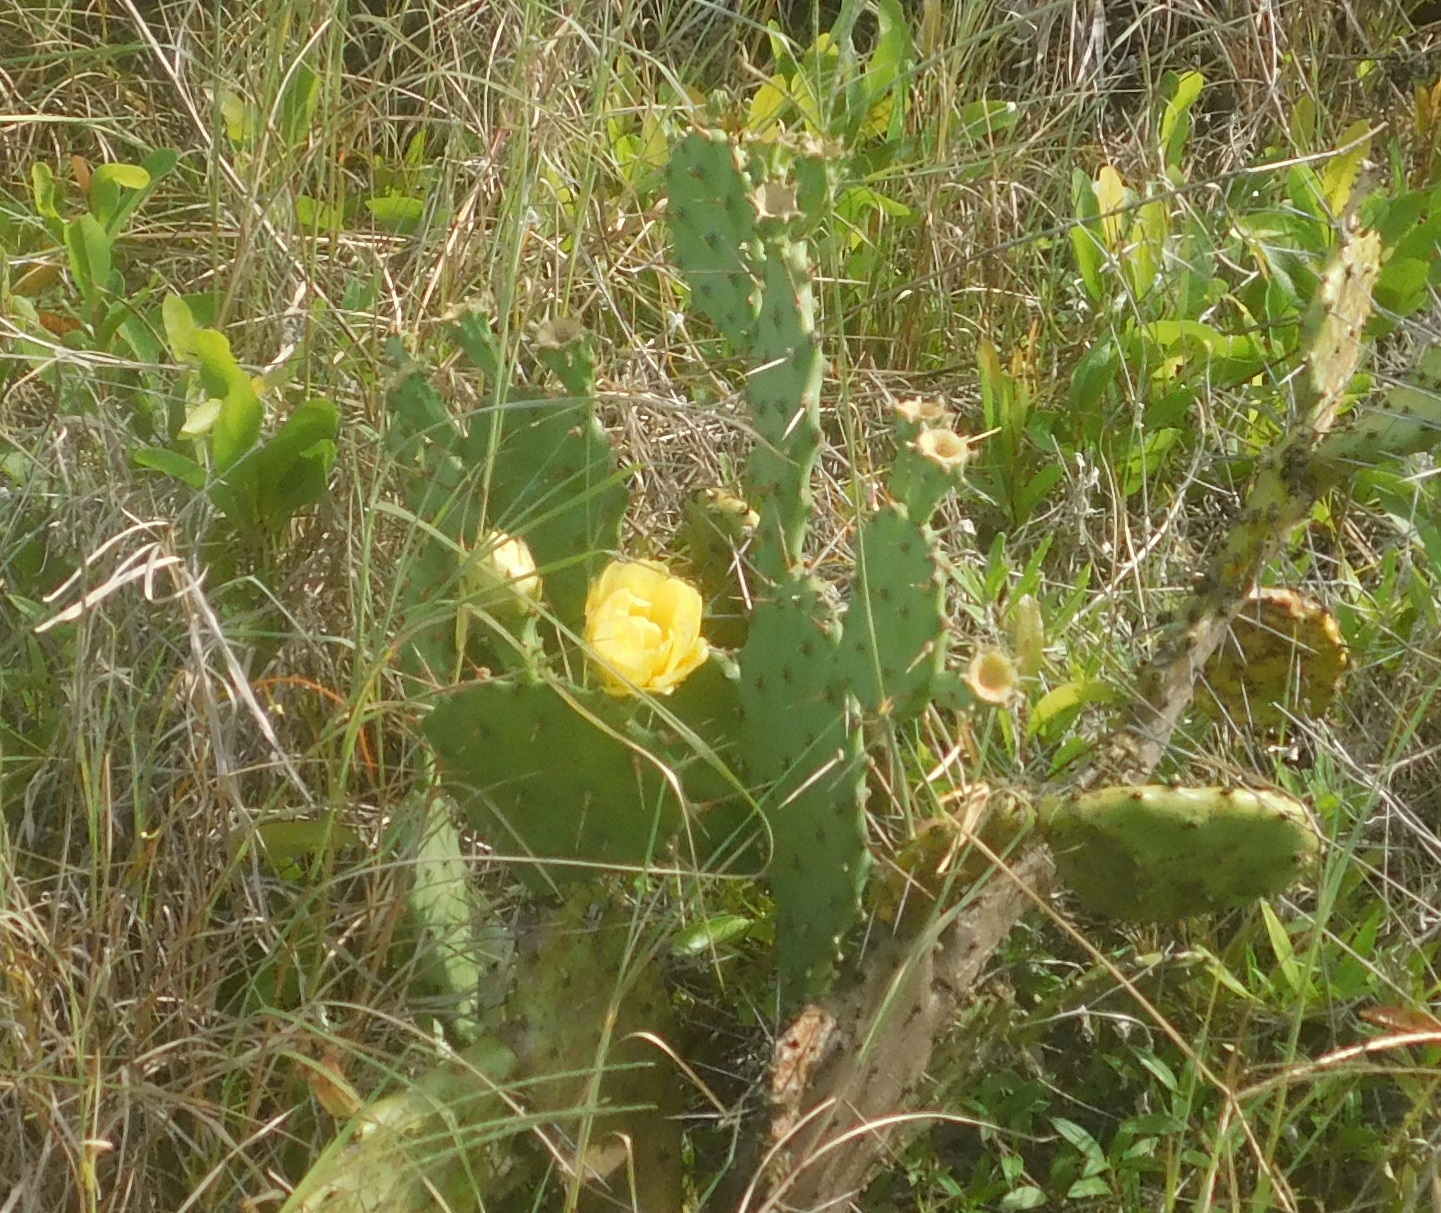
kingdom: Plantae
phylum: Tracheophyta
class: Magnoliopsida
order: Caryophyllales
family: Cactaceae
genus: Opuntia
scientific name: Opuntia austrina
